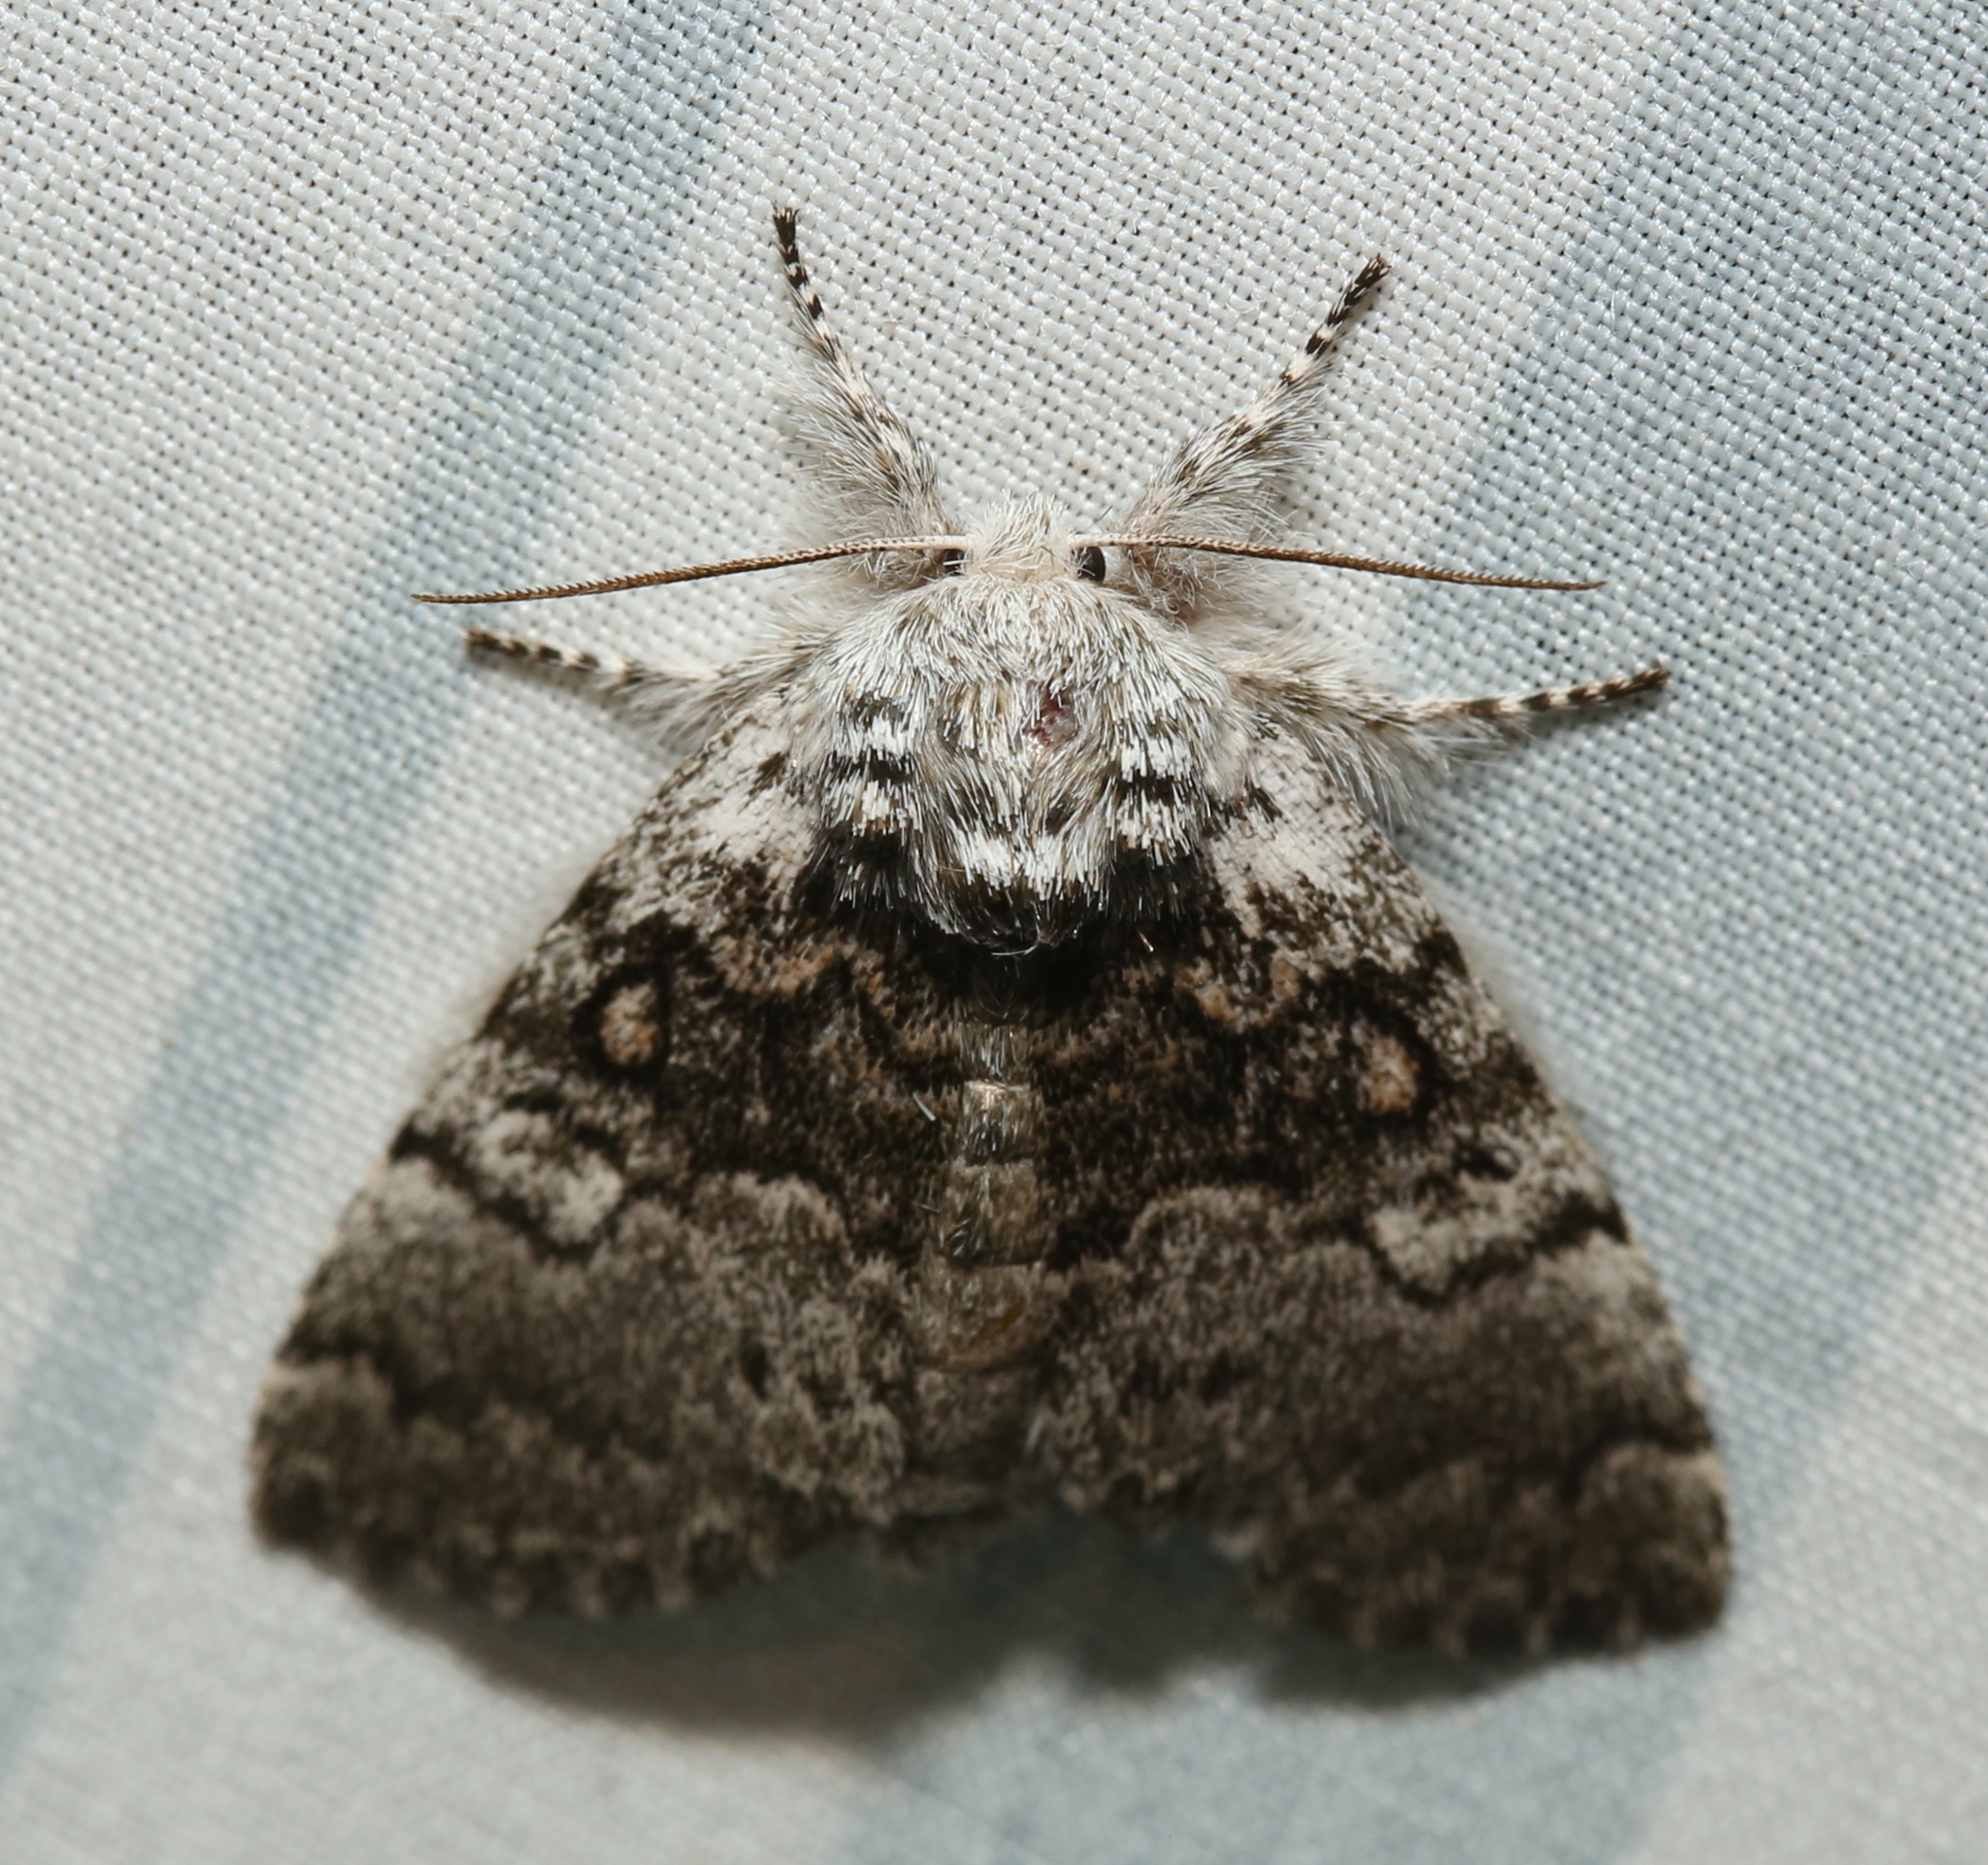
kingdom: Animalia
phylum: Arthropoda
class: Insecta
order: Lepidoptera
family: Noctuidae
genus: Colocasia
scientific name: Colocasia propinquilinea
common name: Close-banded demas
